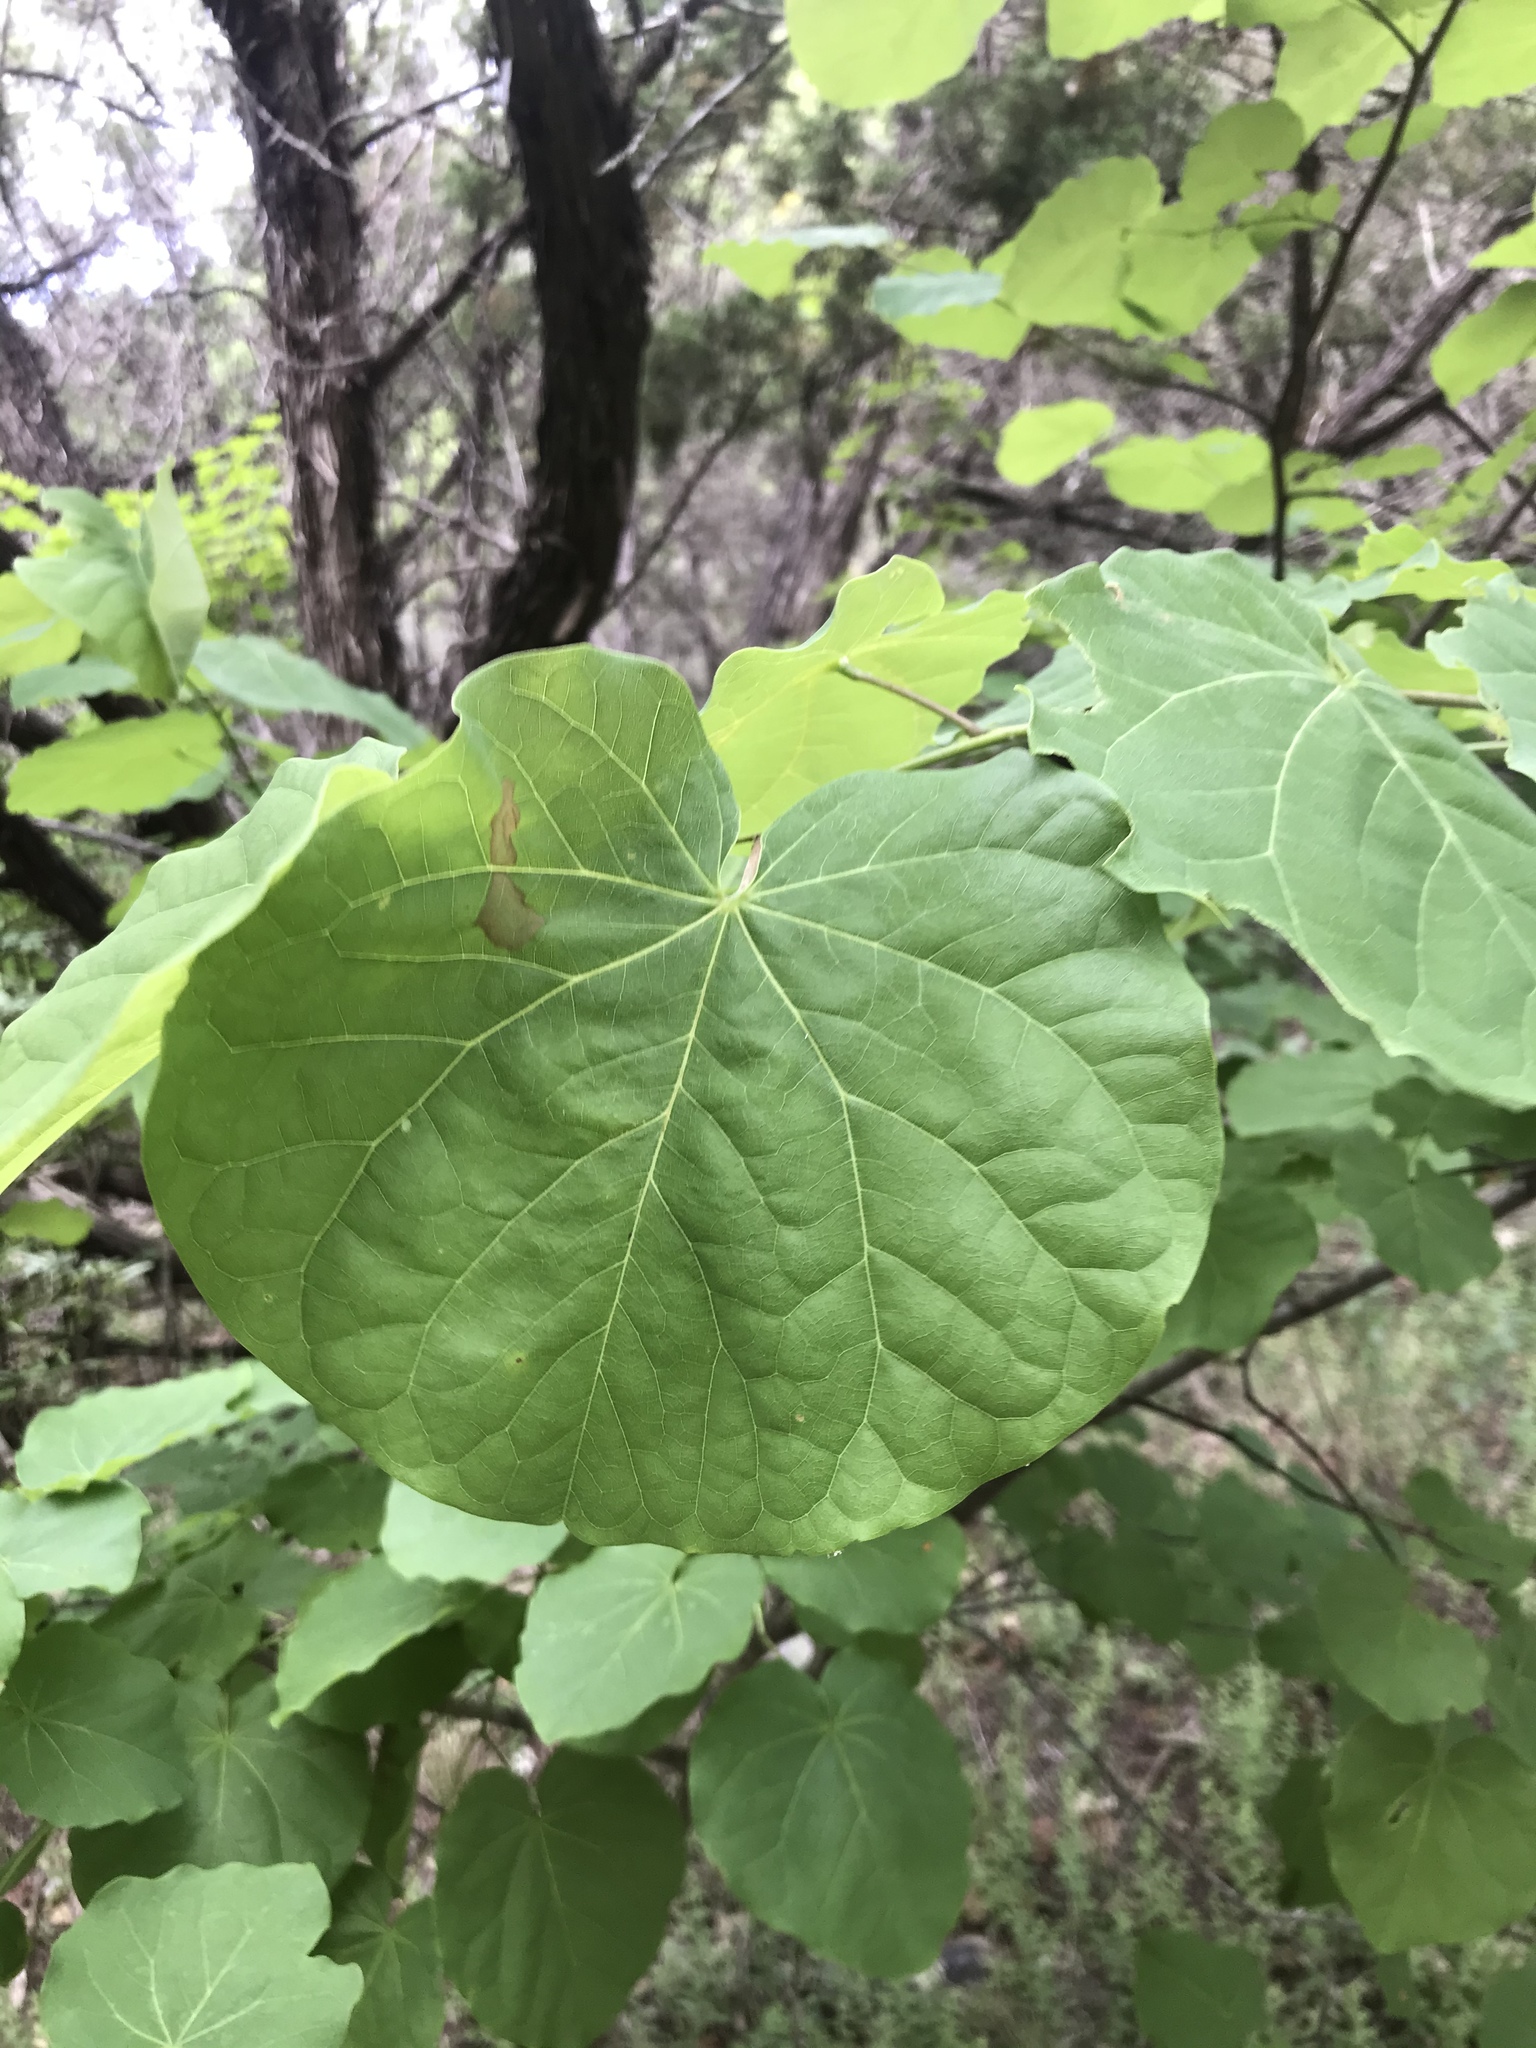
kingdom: Plantae
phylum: Tracheophyta
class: Magnoliopsida
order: Fabales
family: Fabaceae
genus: Cercis
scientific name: Cercis canadensis
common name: Eastern redbud
